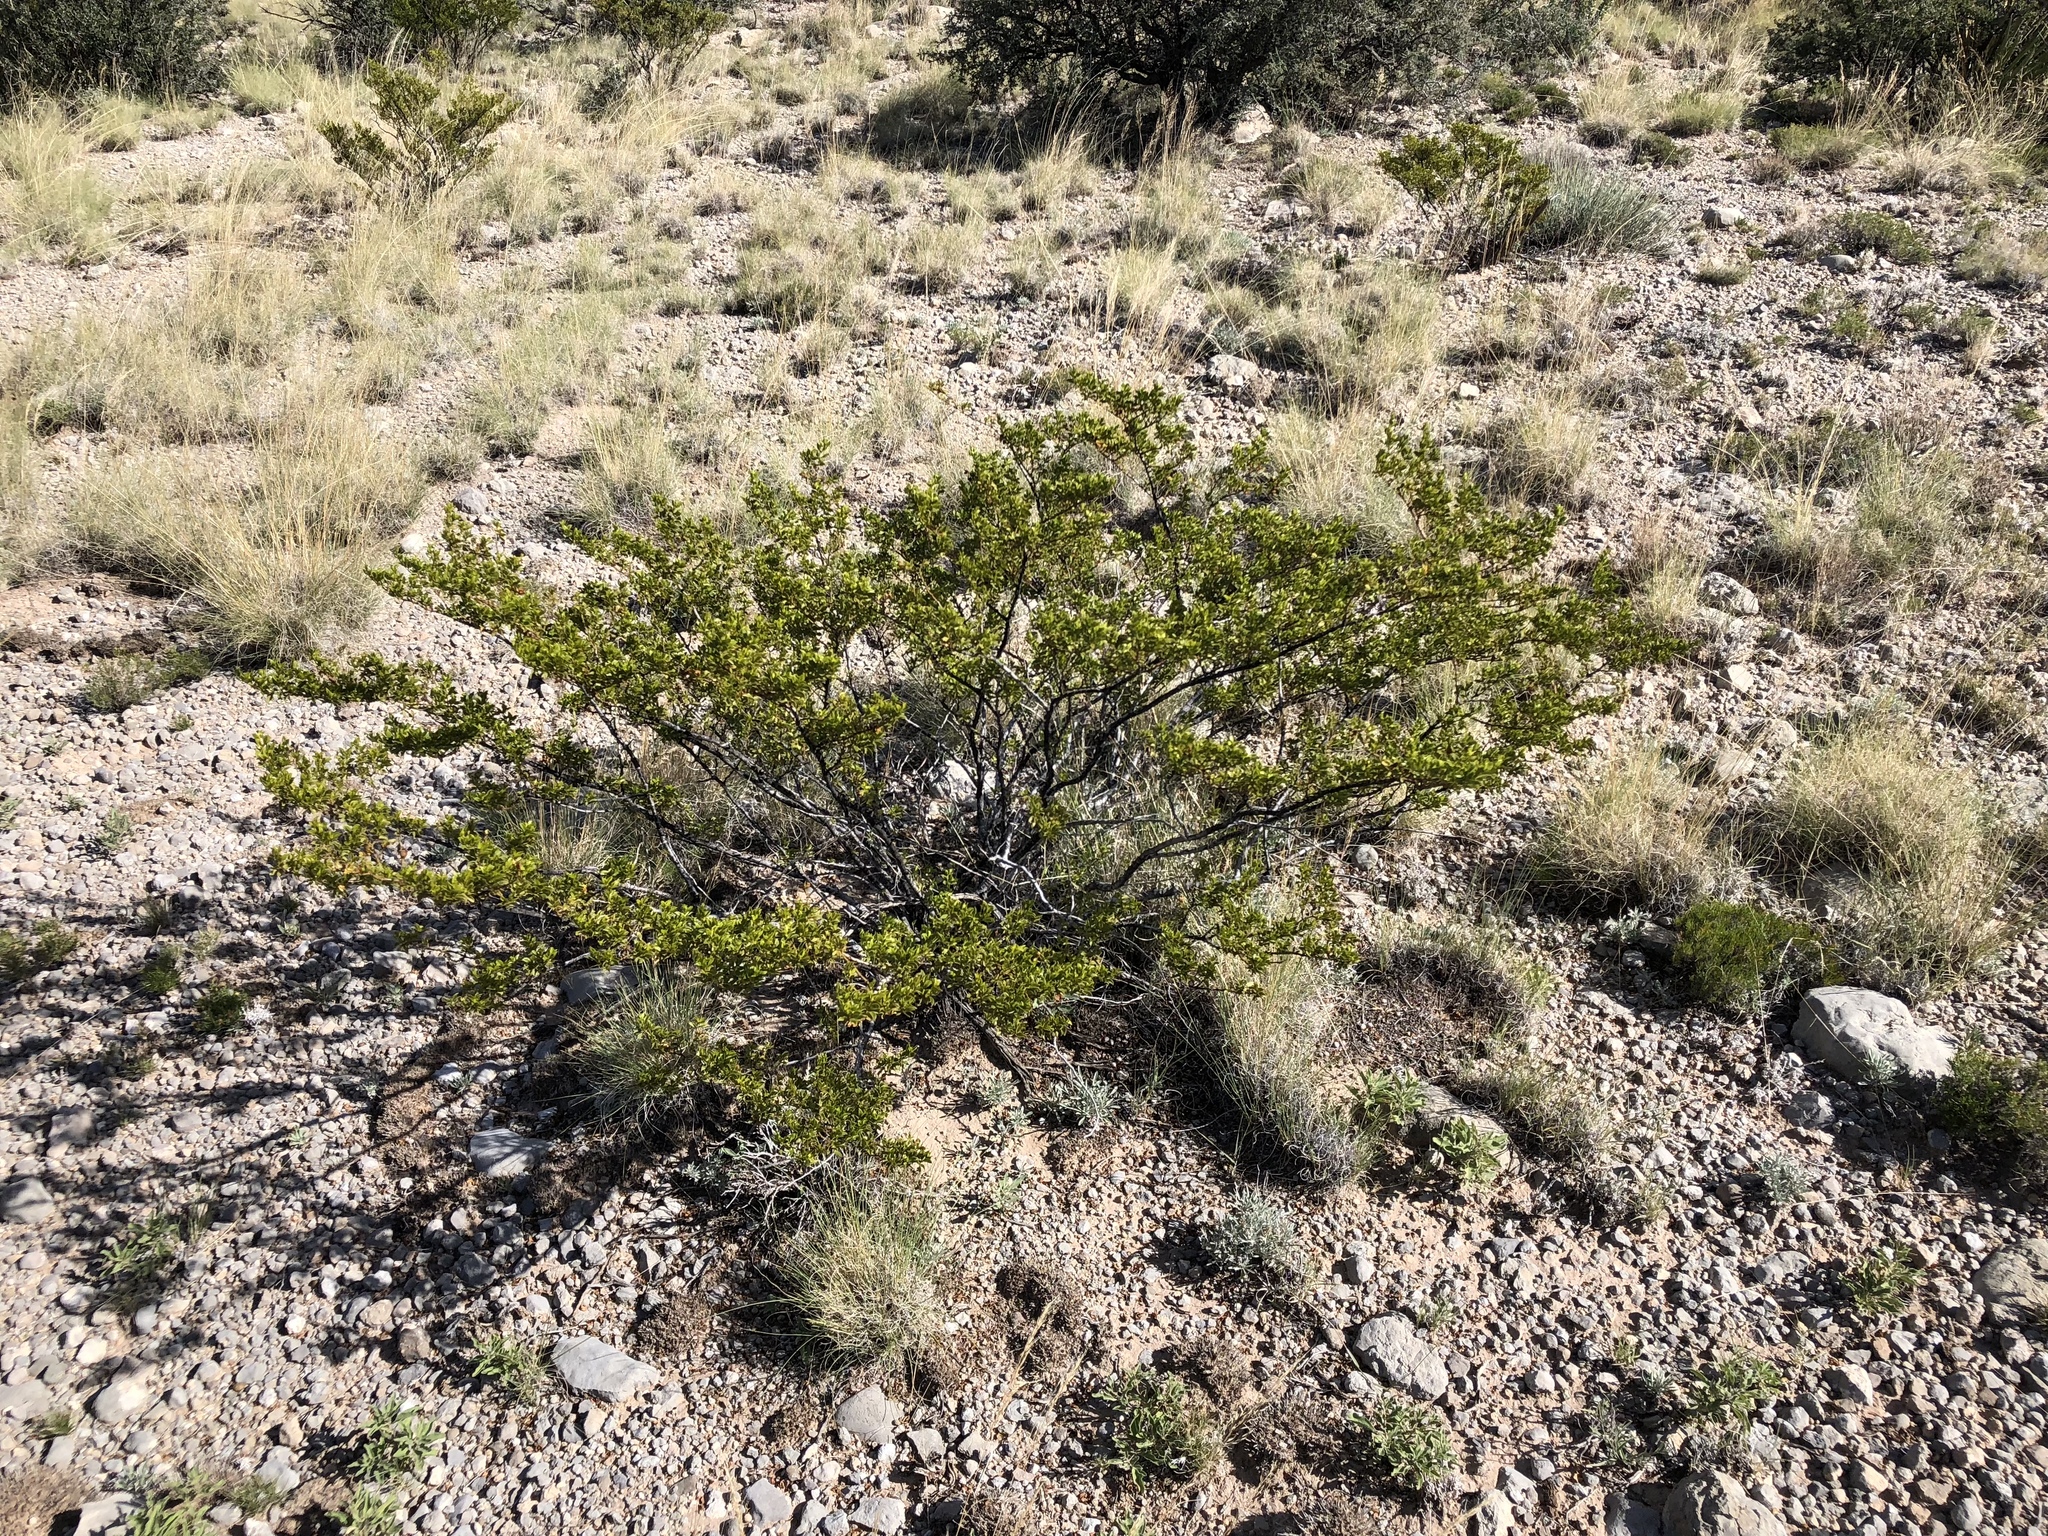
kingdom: Plantae
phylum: Tracheophyta
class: Magnoliopsida
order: Zygophyllales
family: Zygophyllaceae
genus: Larrea
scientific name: Larrea tridentata
